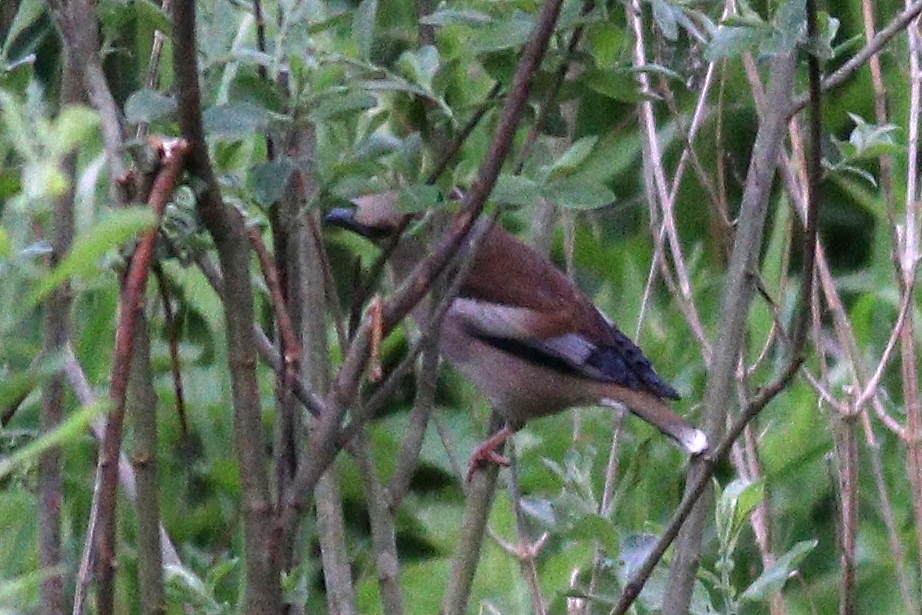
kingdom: Animalia
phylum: Chordata
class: Aves
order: Passeriformes
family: Fringillidae
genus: Coccothraustes
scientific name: Coccothraustes coccothraustes
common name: Hawfinch
